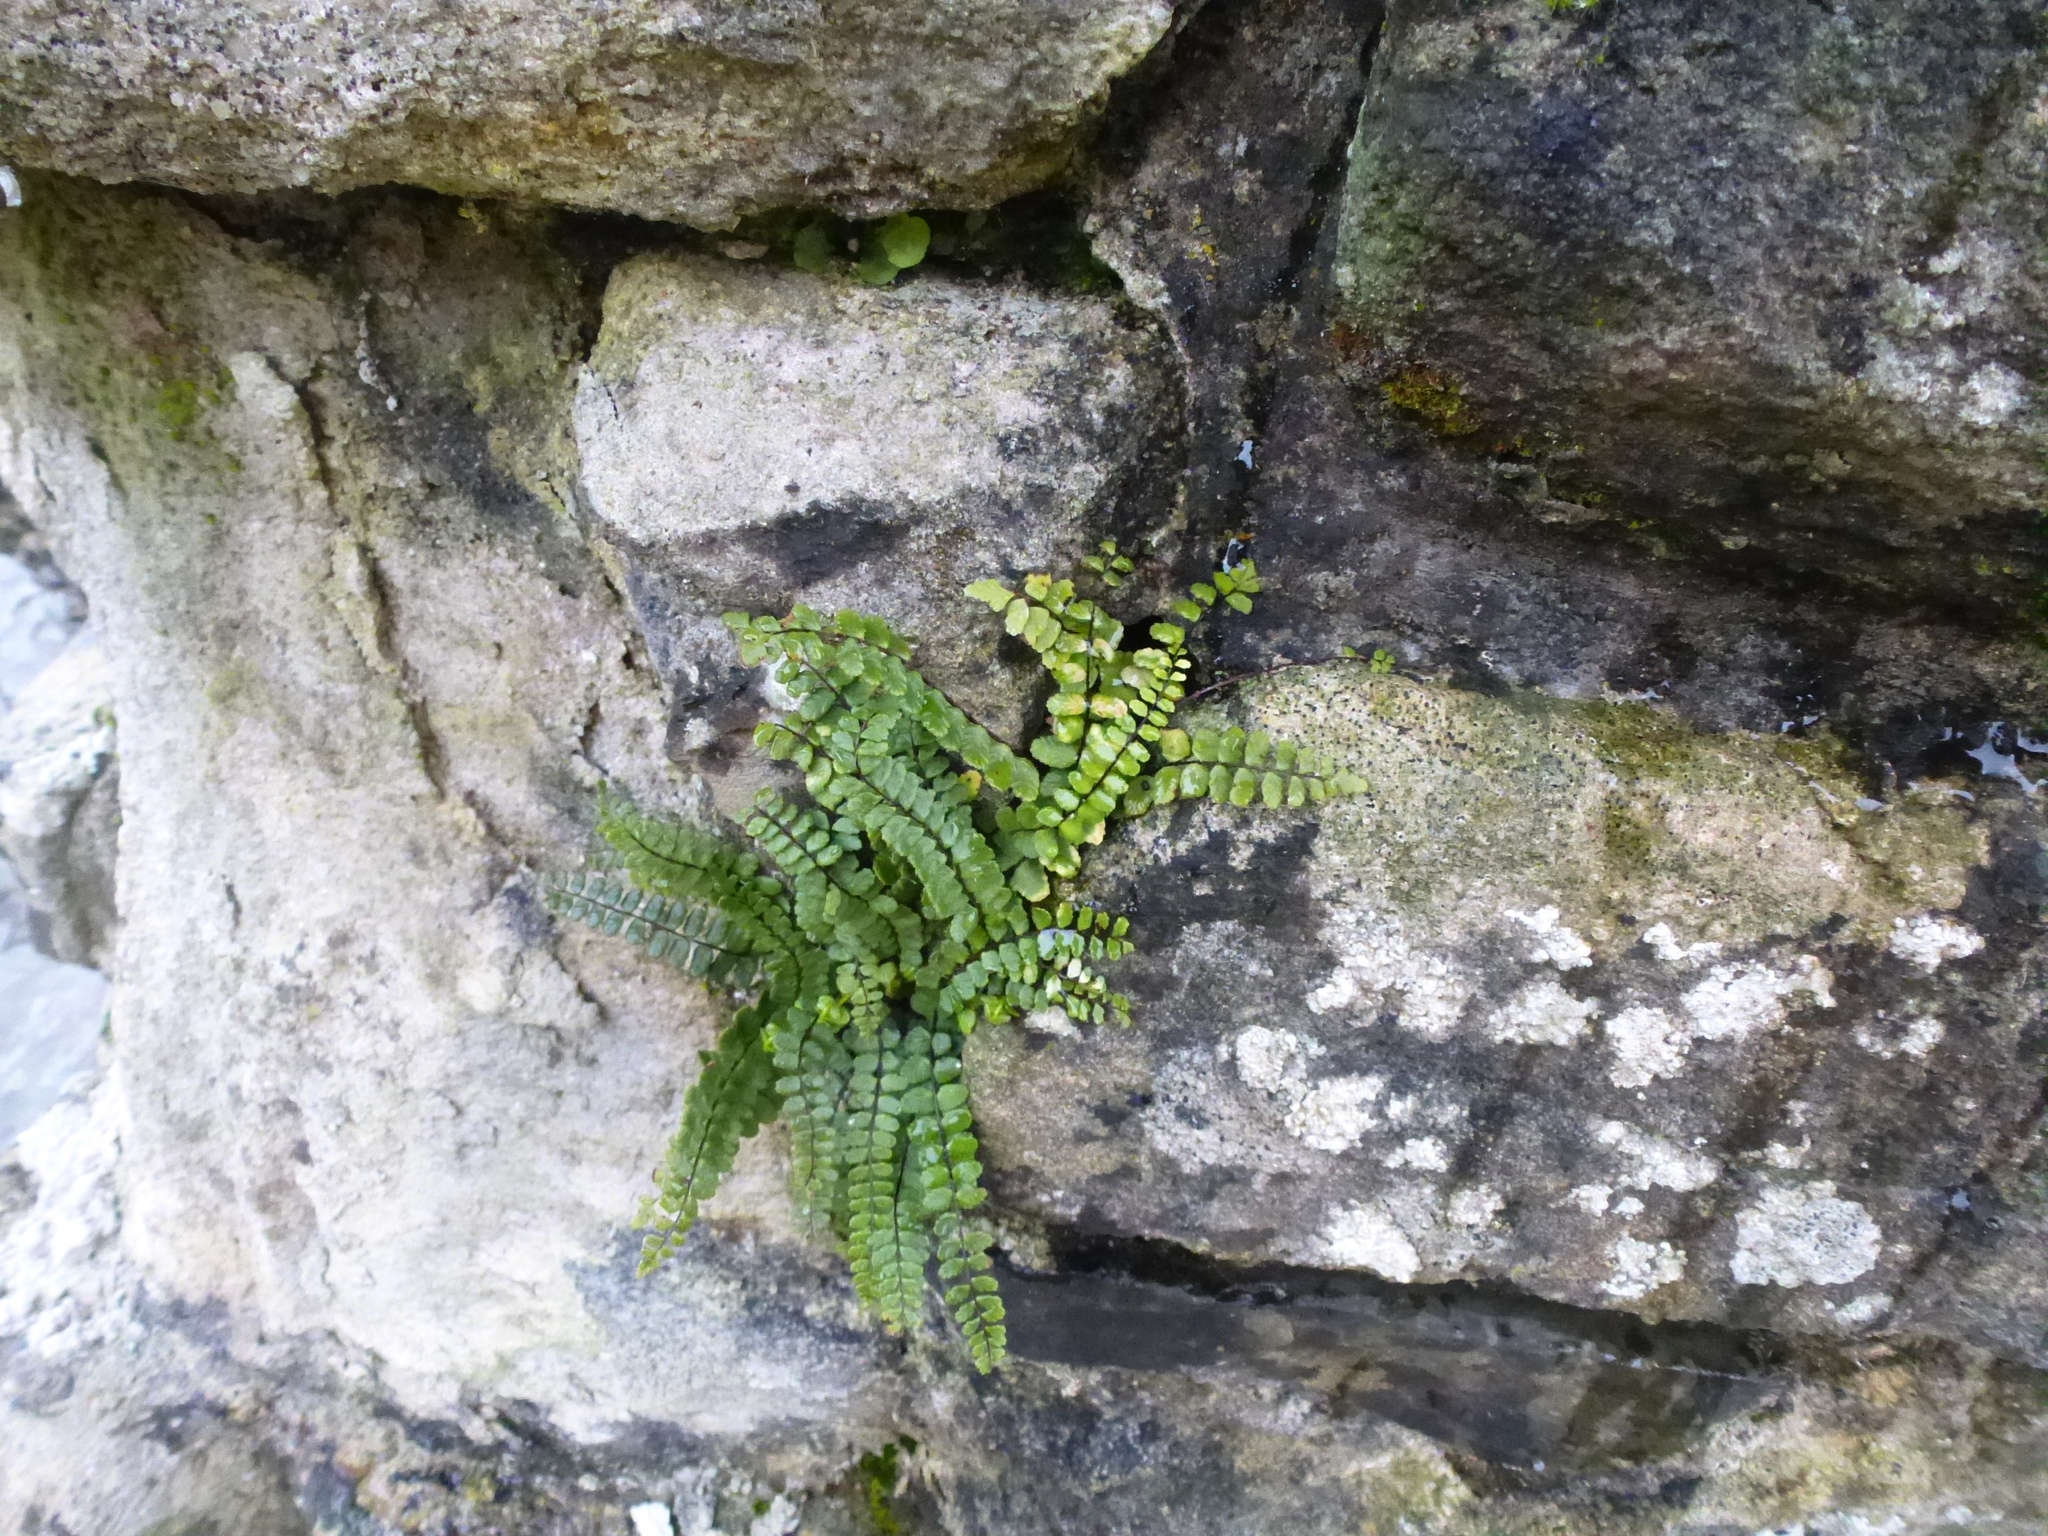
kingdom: Plantae
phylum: Tracheophyta
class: Polypodiopsida
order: Polypodiales
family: Aspleniaceae
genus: Asplenium
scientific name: Asplenium trichomanes
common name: Maidenhair spleenwort
